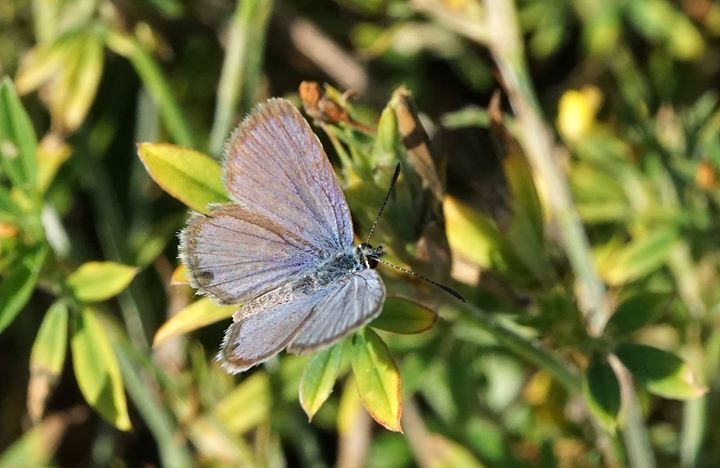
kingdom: Animalia
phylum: Arthropoda
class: Insecta
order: Lepidoptera
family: Lycaenidae
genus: Hemiargus
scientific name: Hemiargus ceraunus
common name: Ceraunus blue
